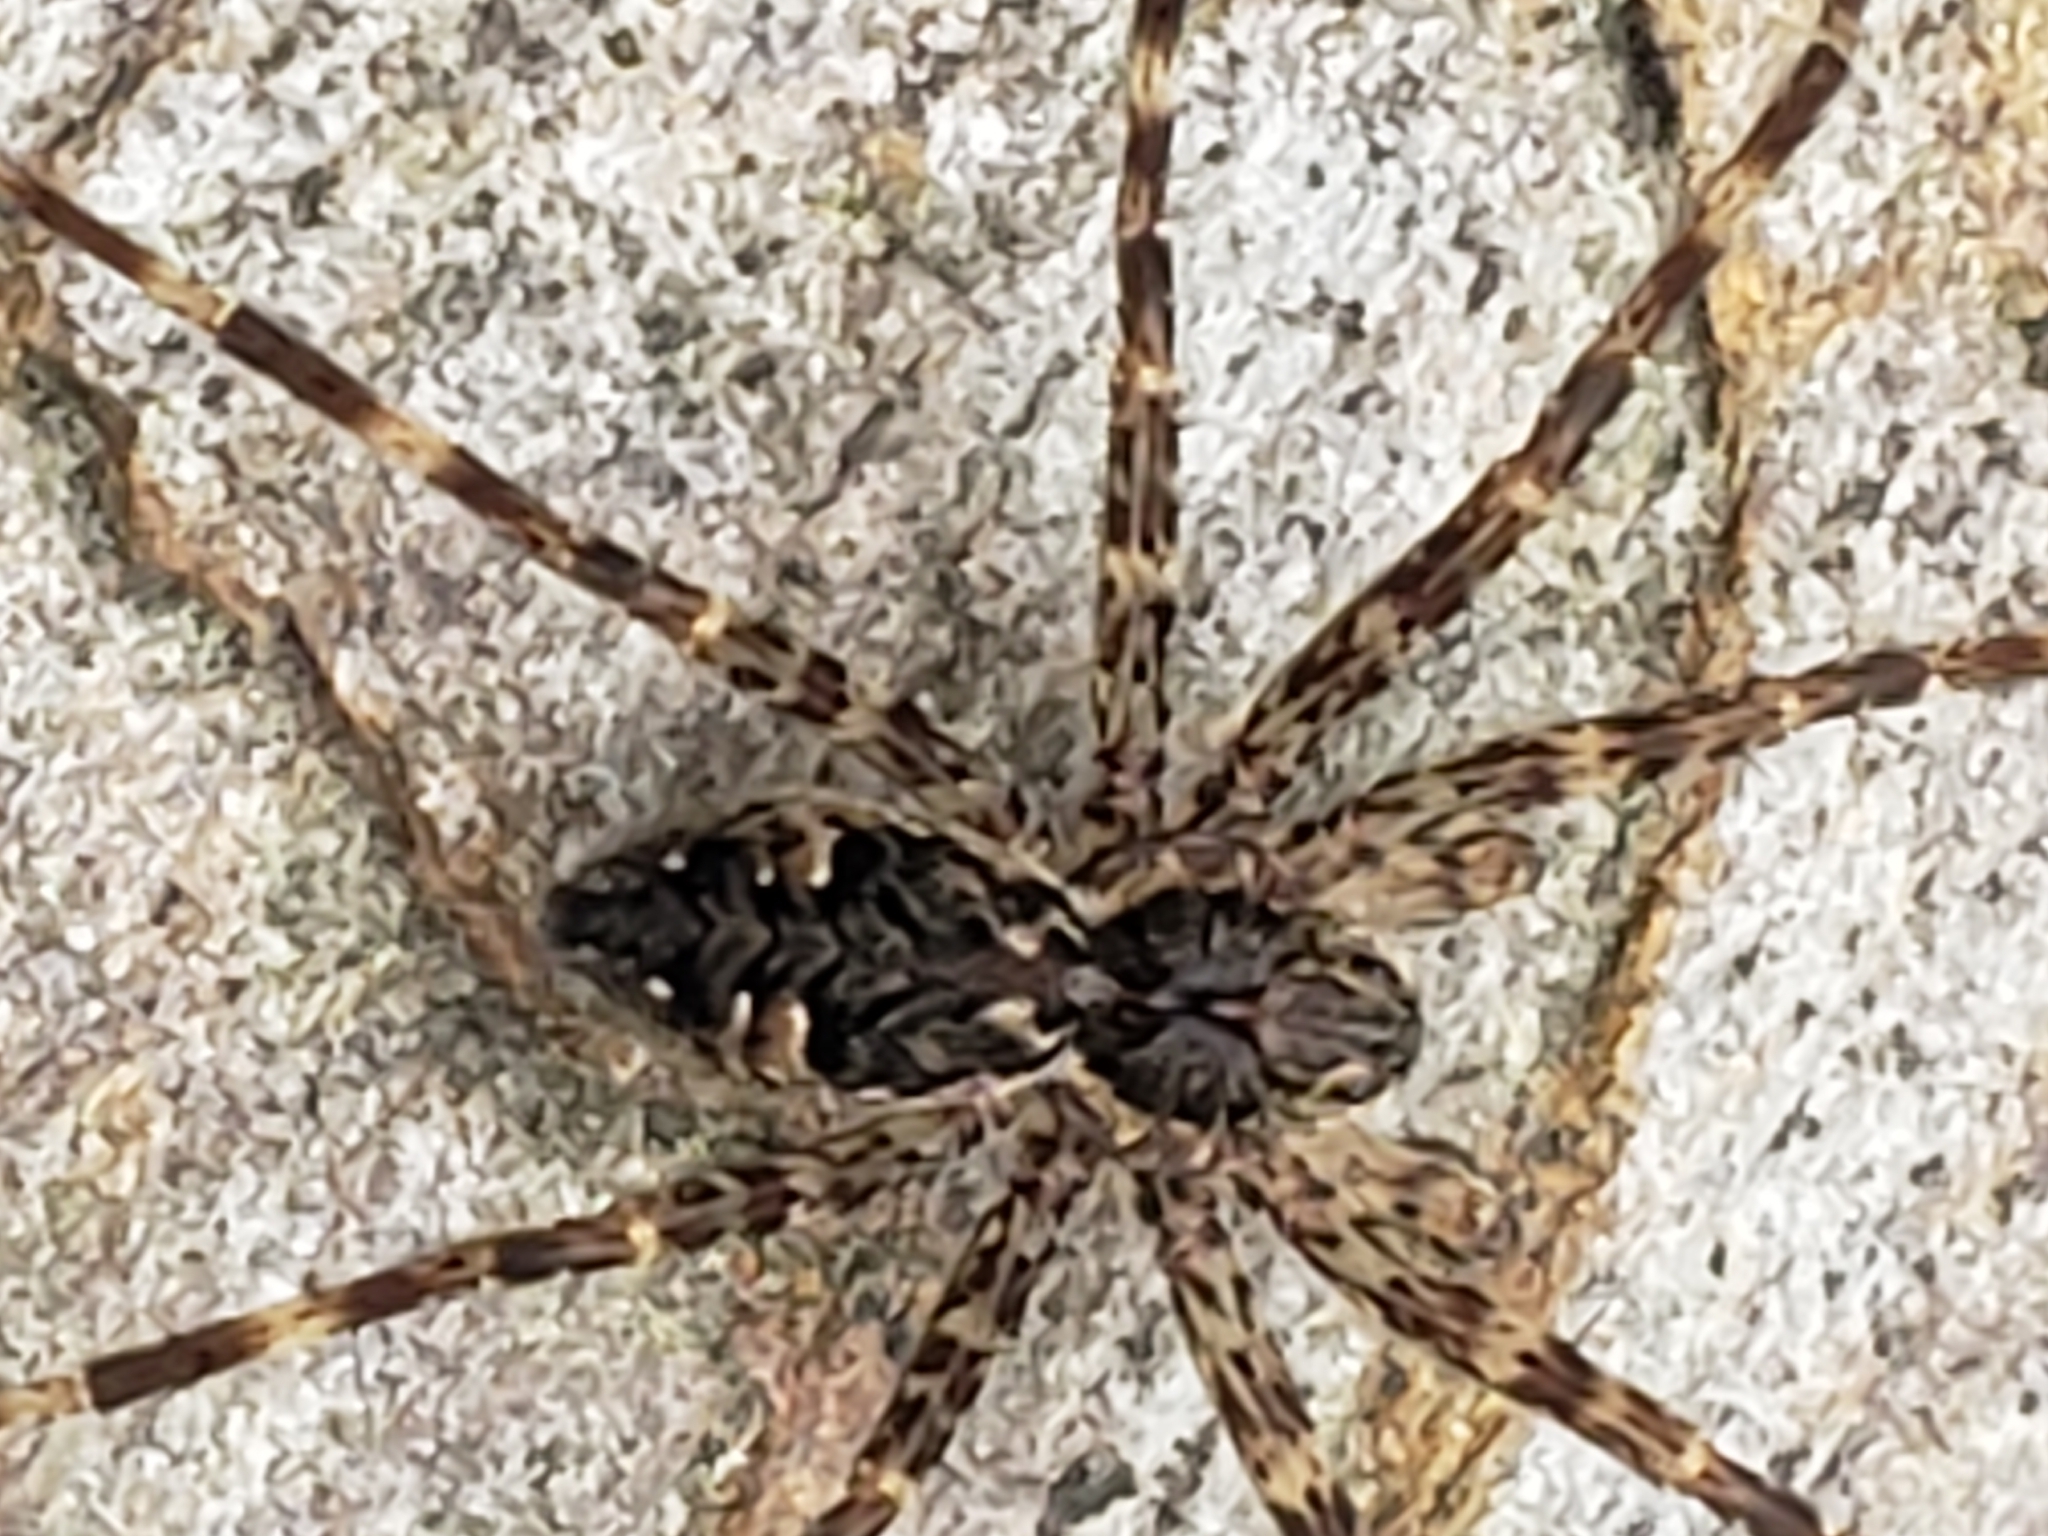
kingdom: Animalia
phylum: Arthropoda
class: Arachnida
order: Araneae
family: Pisauridae
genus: Dolomedes
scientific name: Dolomedes tenebrosus
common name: Dark fishing spider
